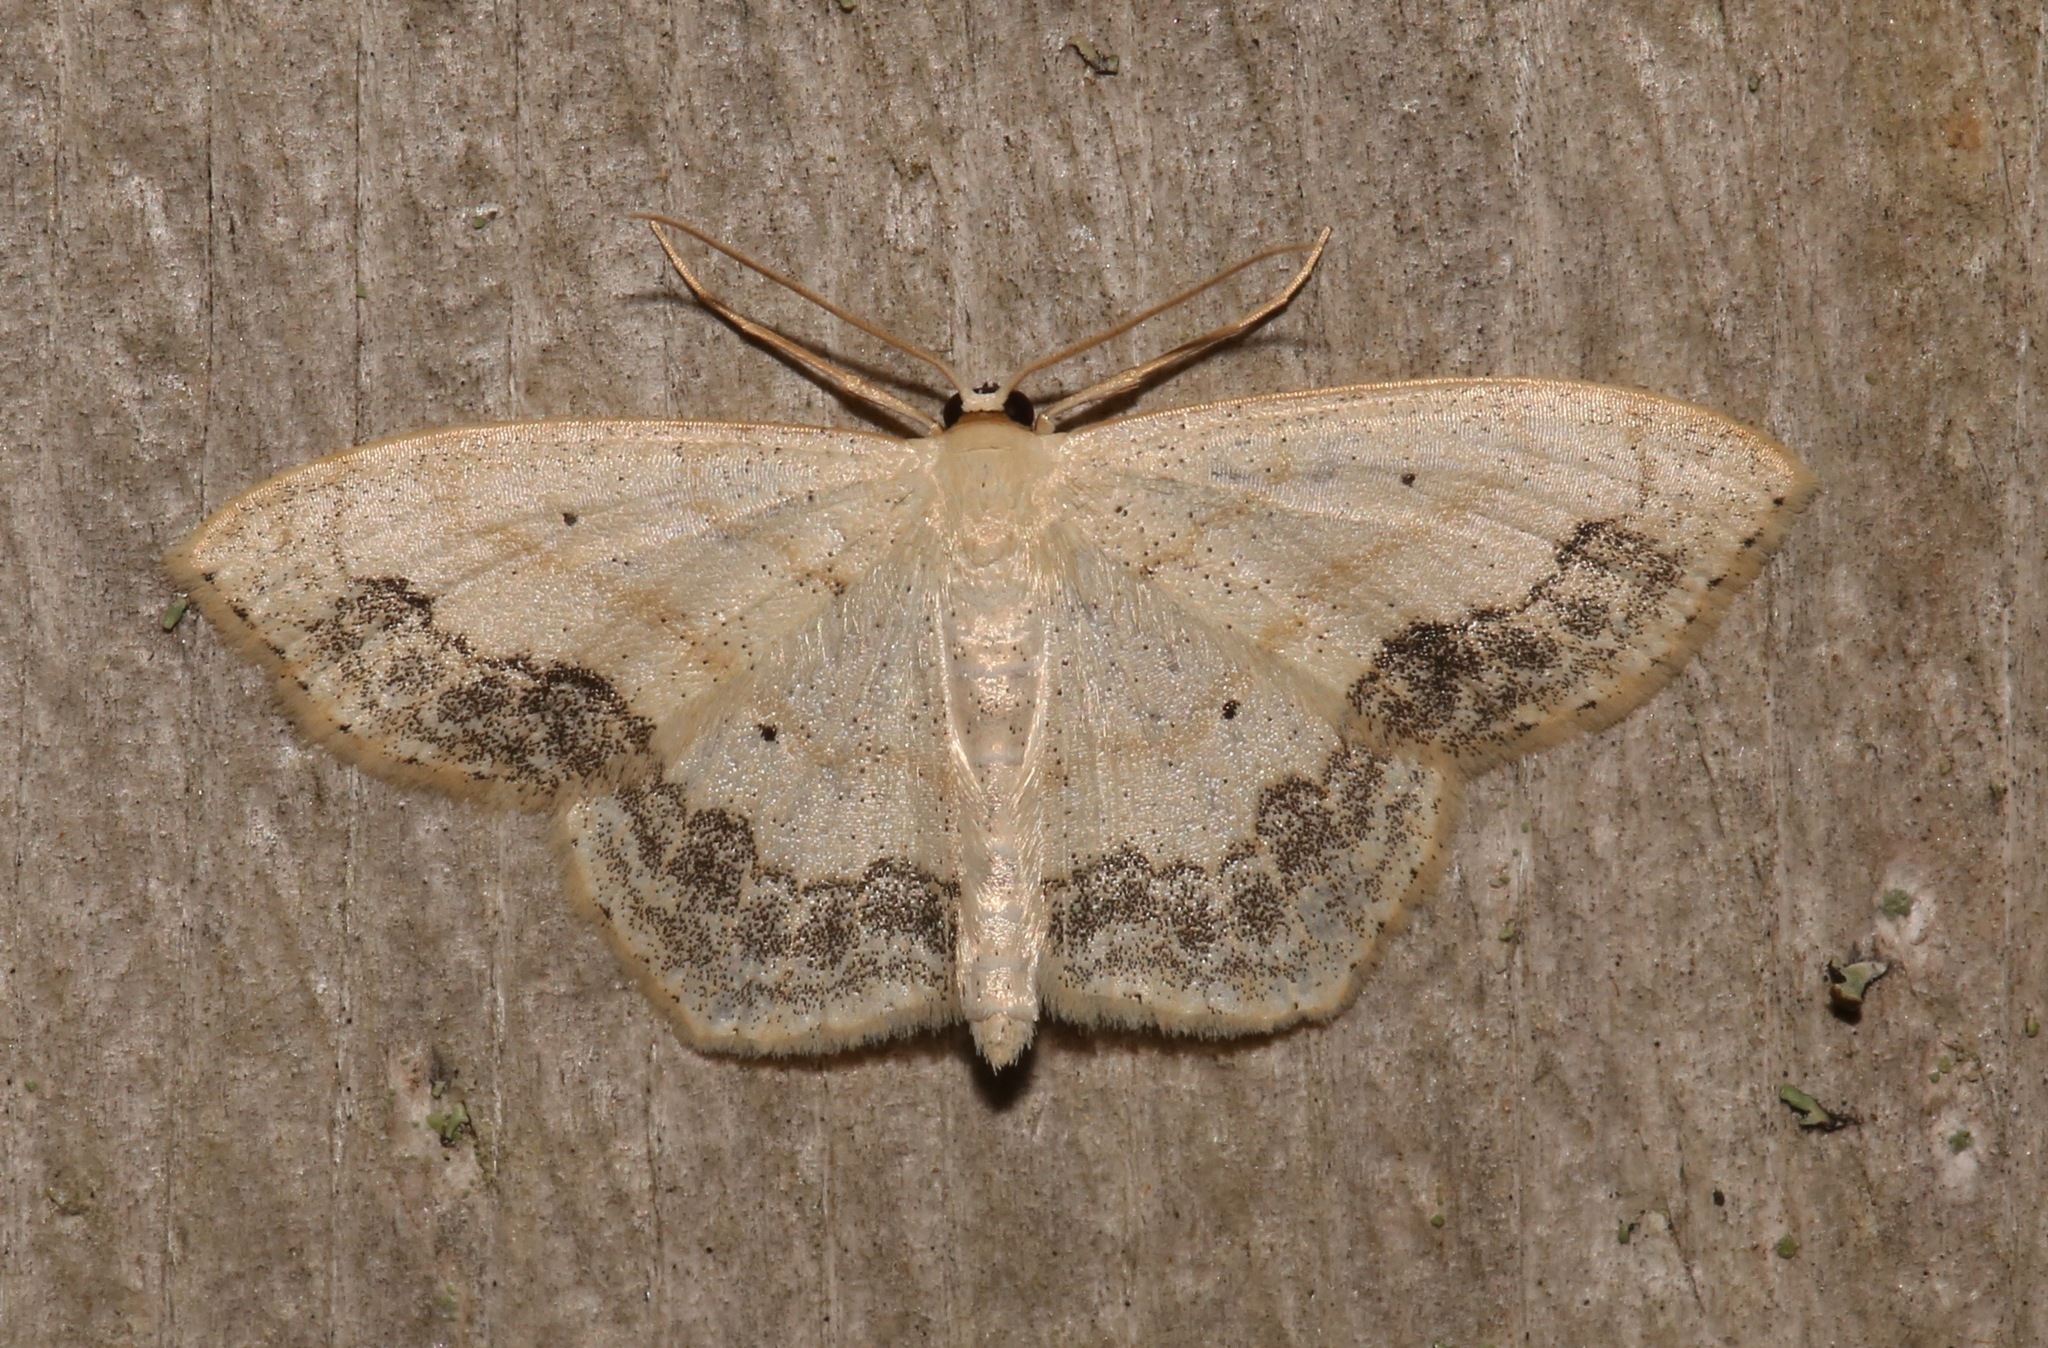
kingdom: Animalia
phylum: Arthropoda
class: Insecta
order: Lepidoptera
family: Geometridae
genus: Scopula
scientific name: Scopula limboundata
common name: Large lace border
